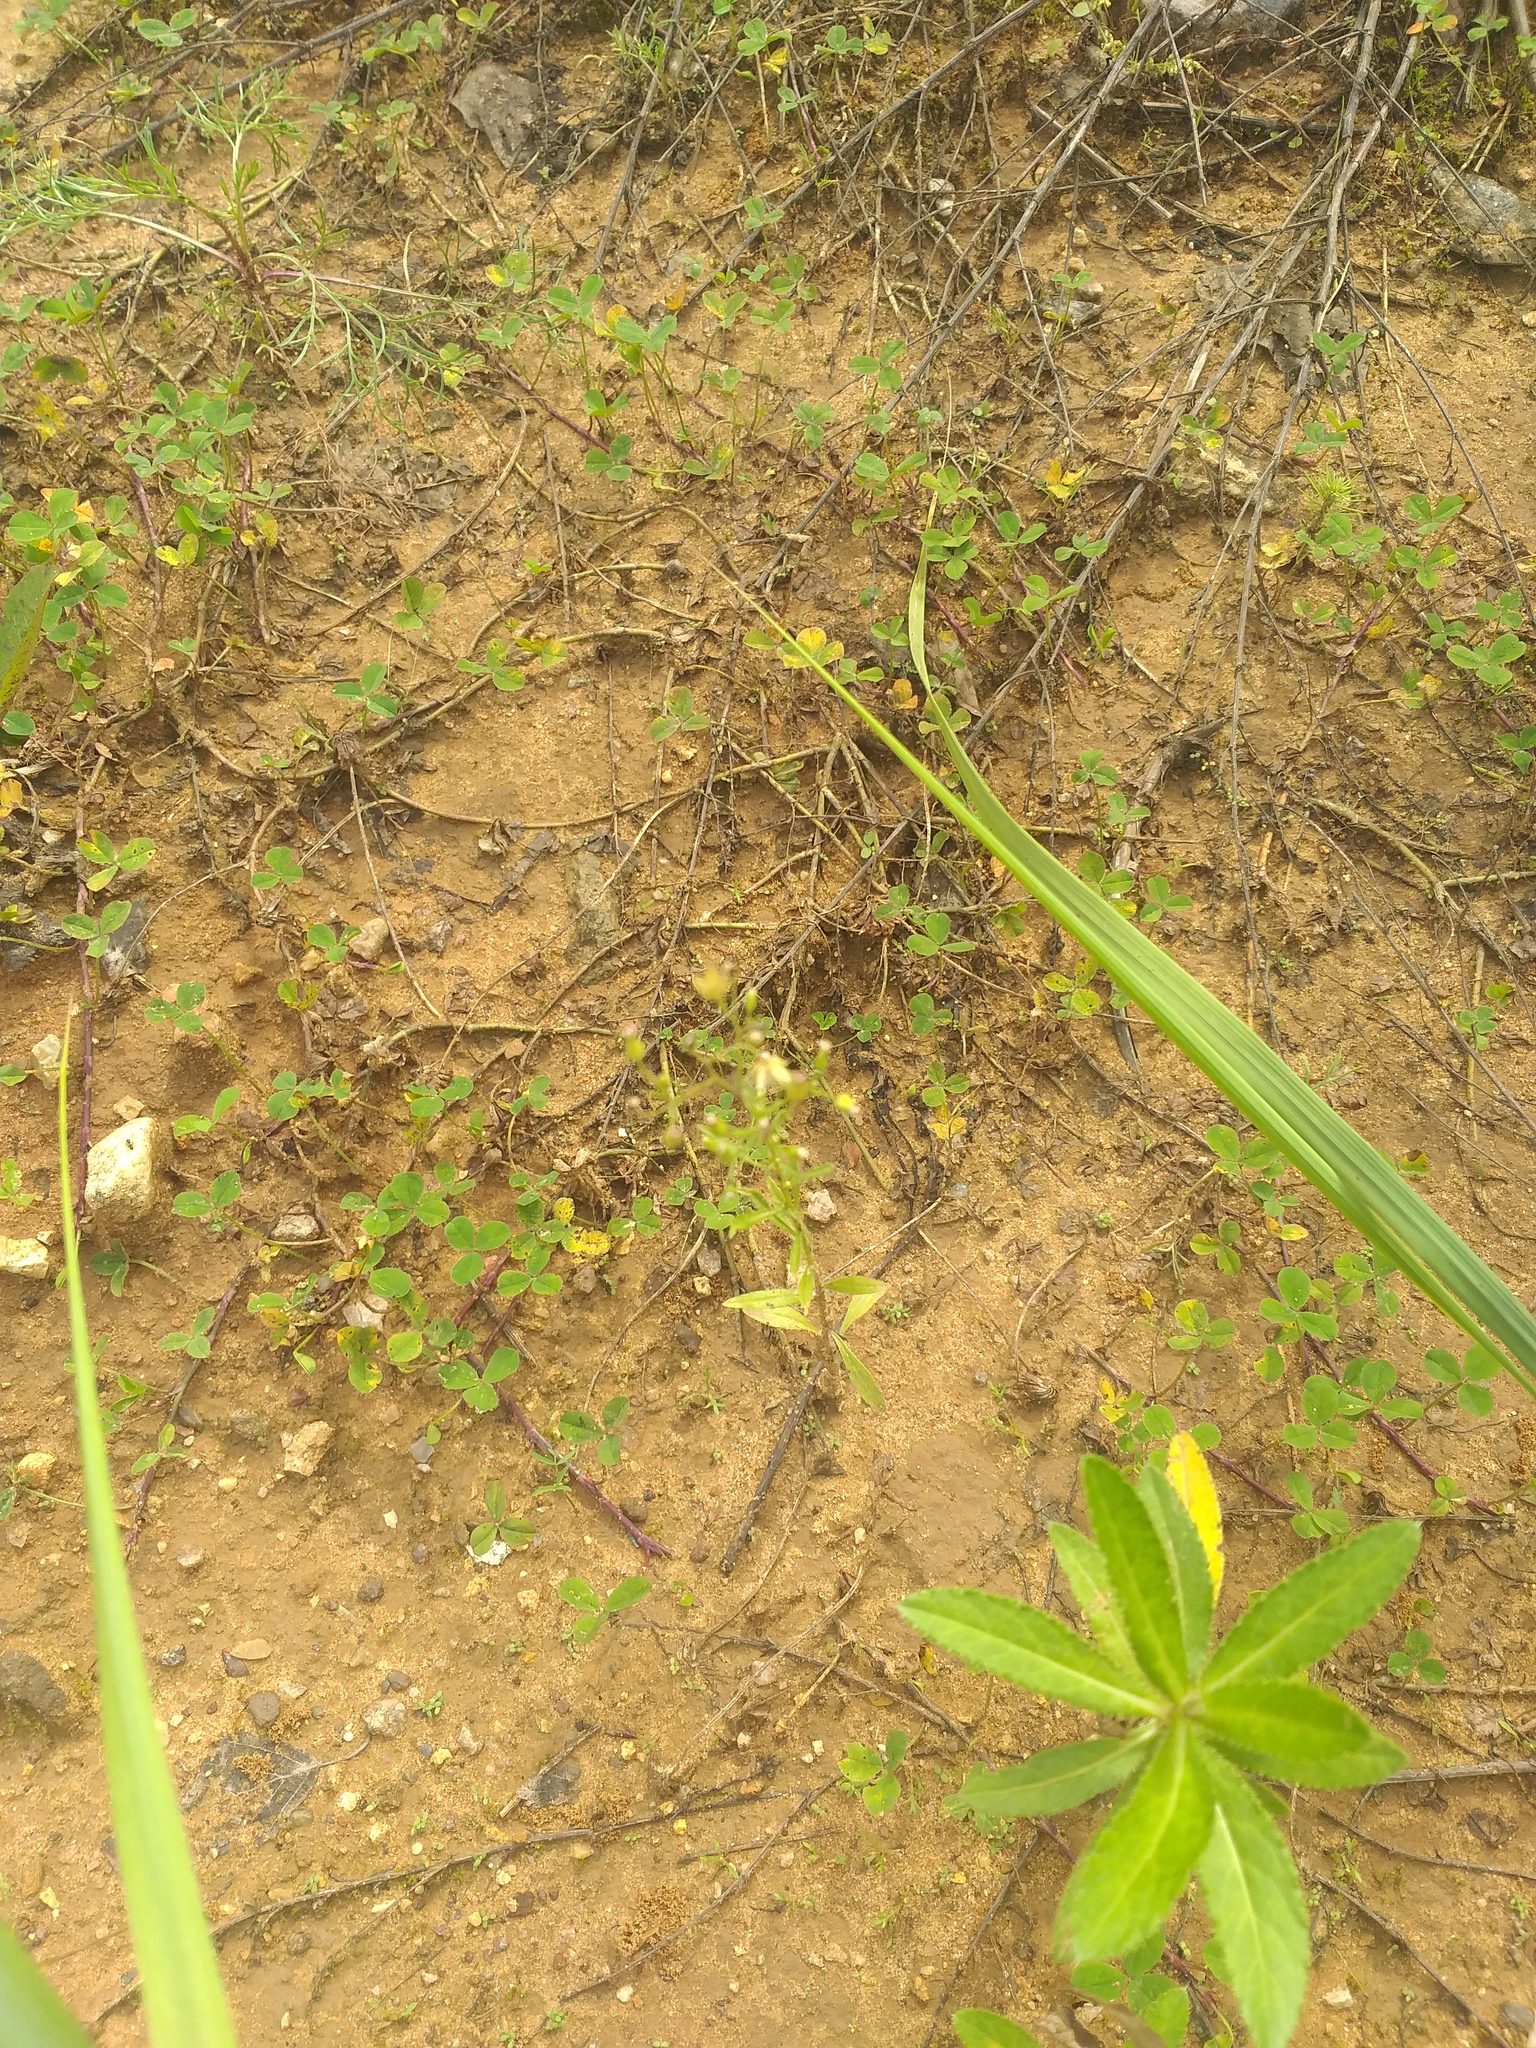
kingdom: Plantae
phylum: Tracheophyta
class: Magnoliopsida
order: Asterales
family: Asteraceae
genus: Erigeron
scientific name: Erigeron canadensis
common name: Canadian fleabane
